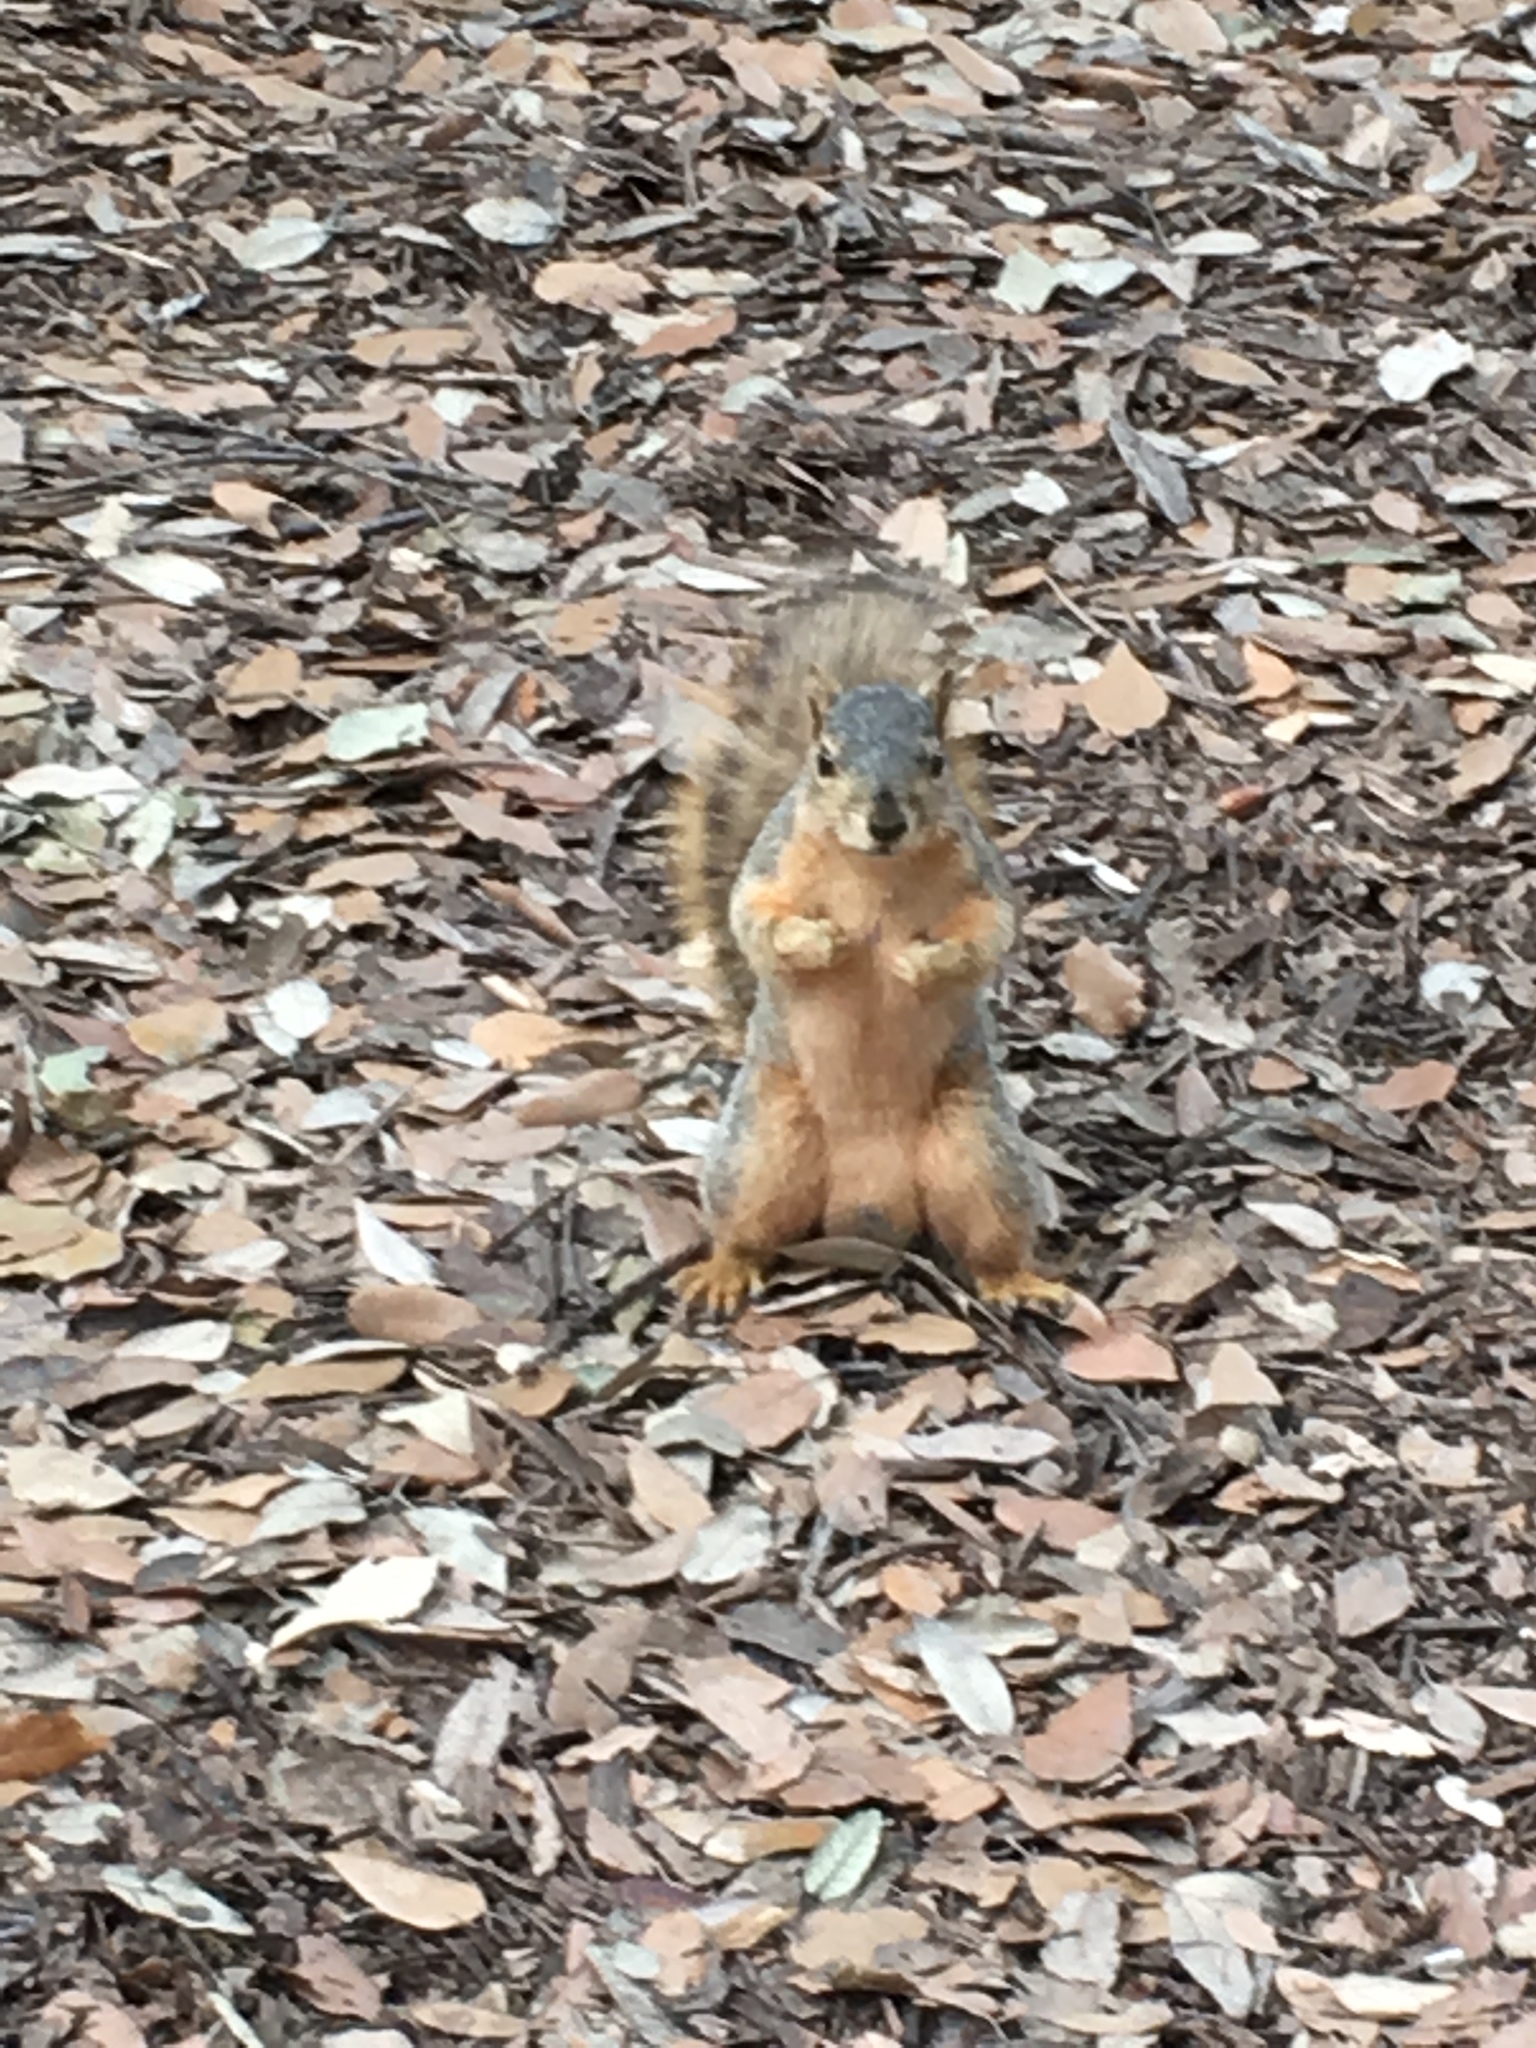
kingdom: Animalia
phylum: Chordata
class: Mammalia
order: Rodentia
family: Sciuridae
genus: Sciurus
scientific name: Sciurus niger
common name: Fox squirrel
